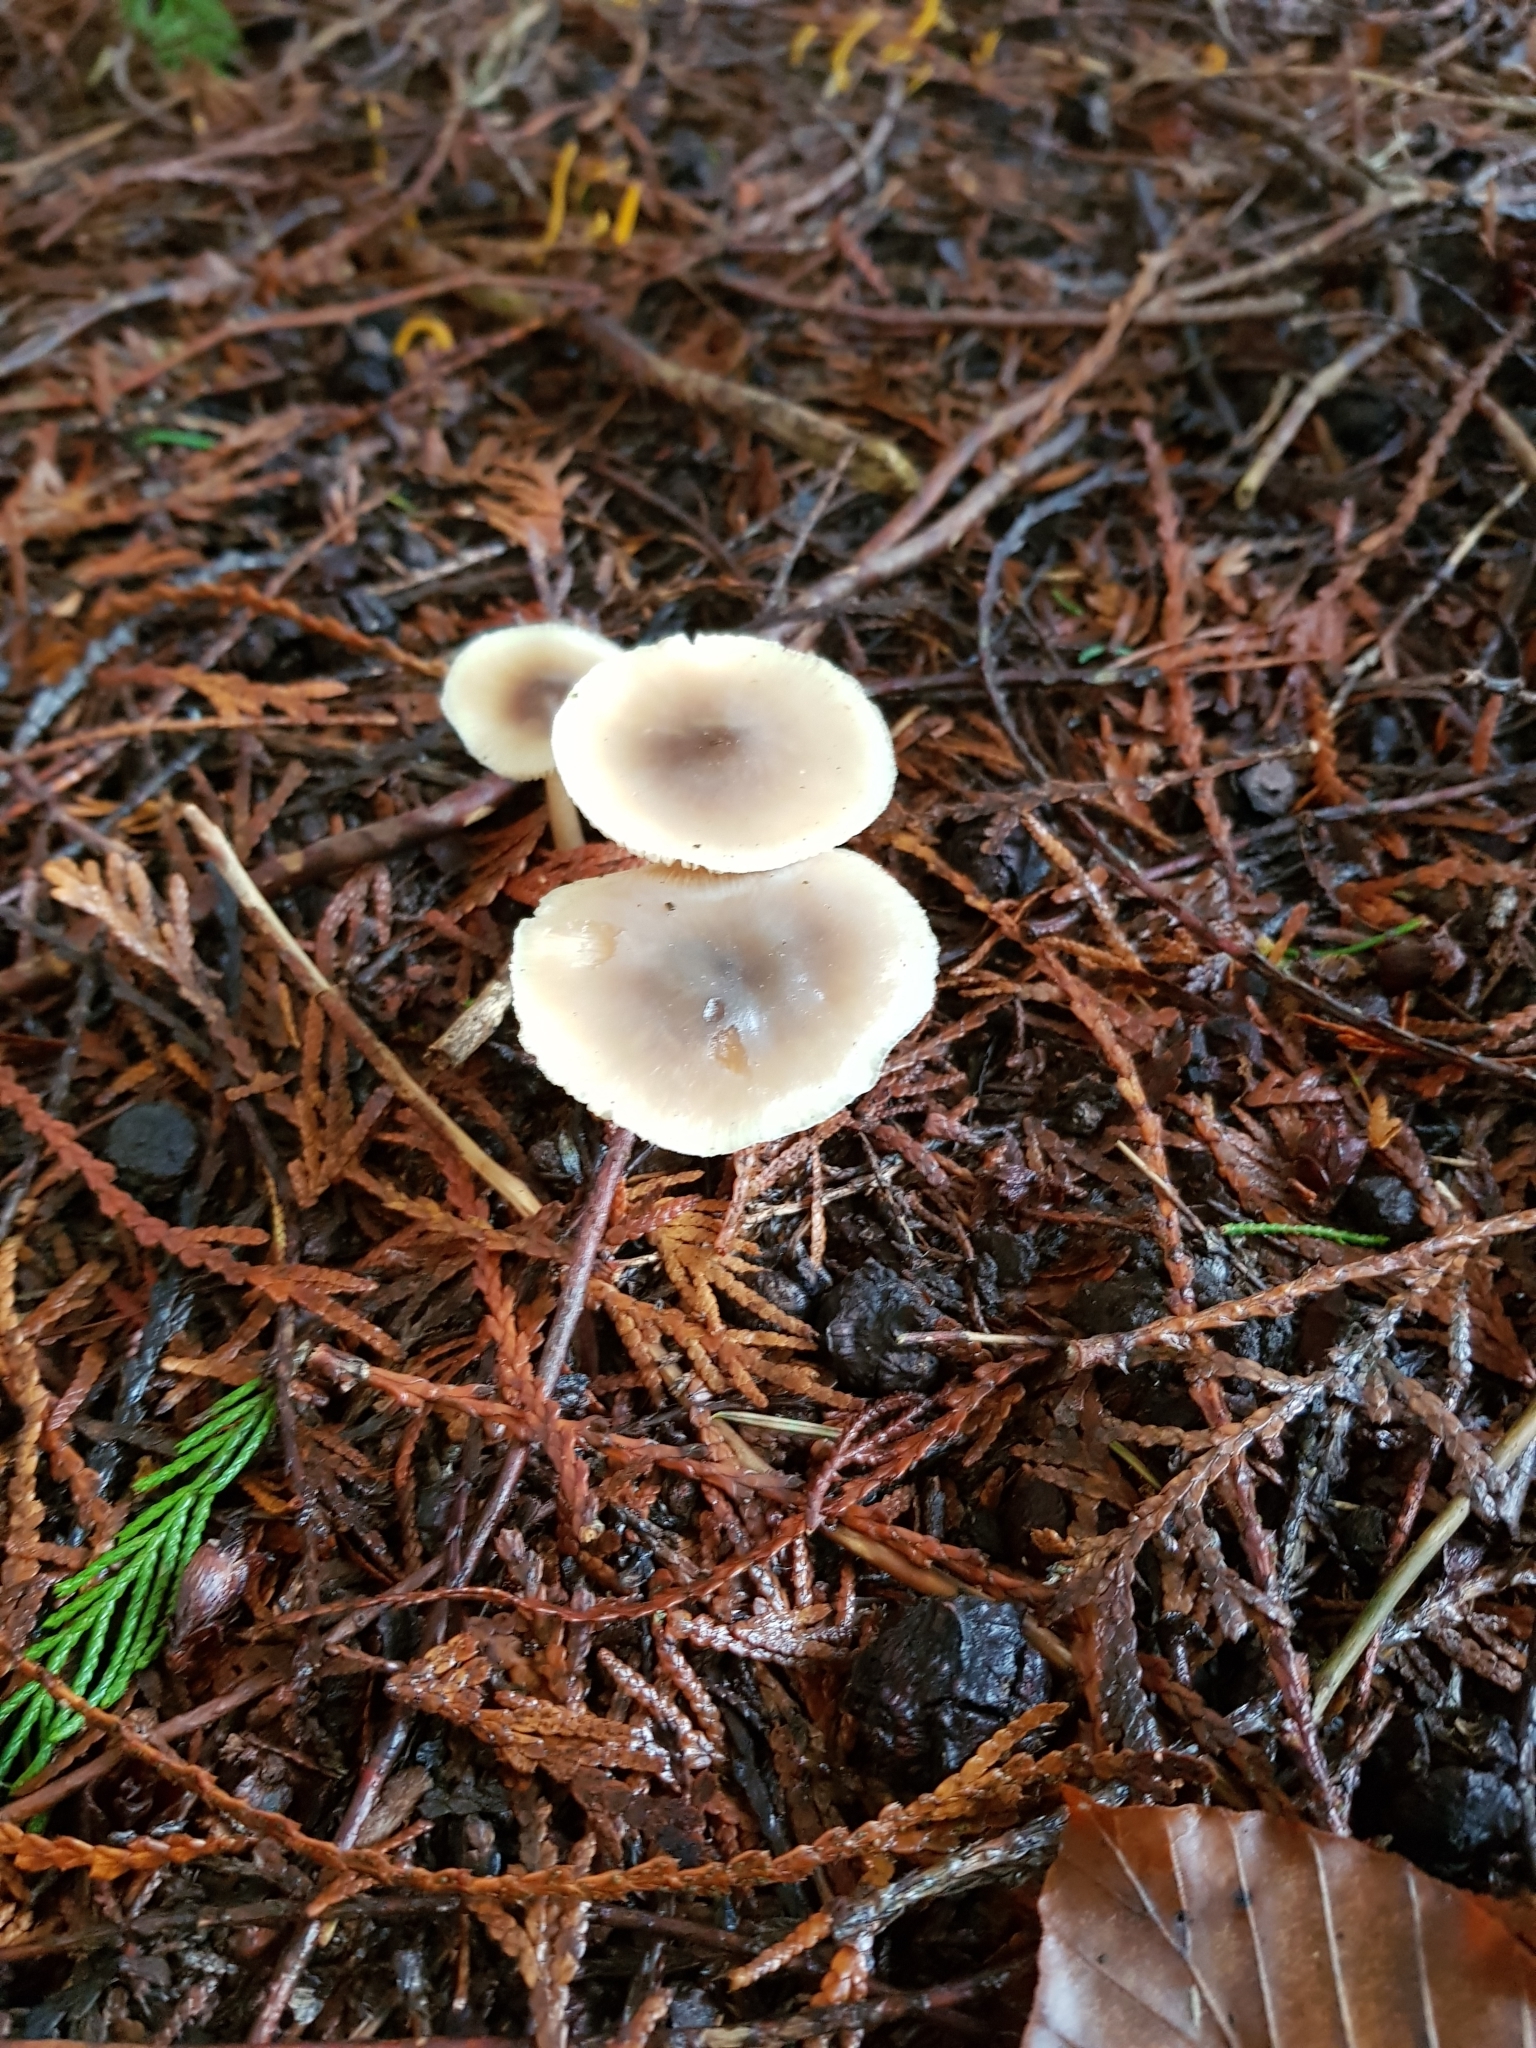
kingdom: Fungi
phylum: Basidiomycota
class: Agaricomycetes
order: Agaricales
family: Omphalotaceae
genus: Rhodocollybia
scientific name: Rhodocollybia butyracea
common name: Butter cap
